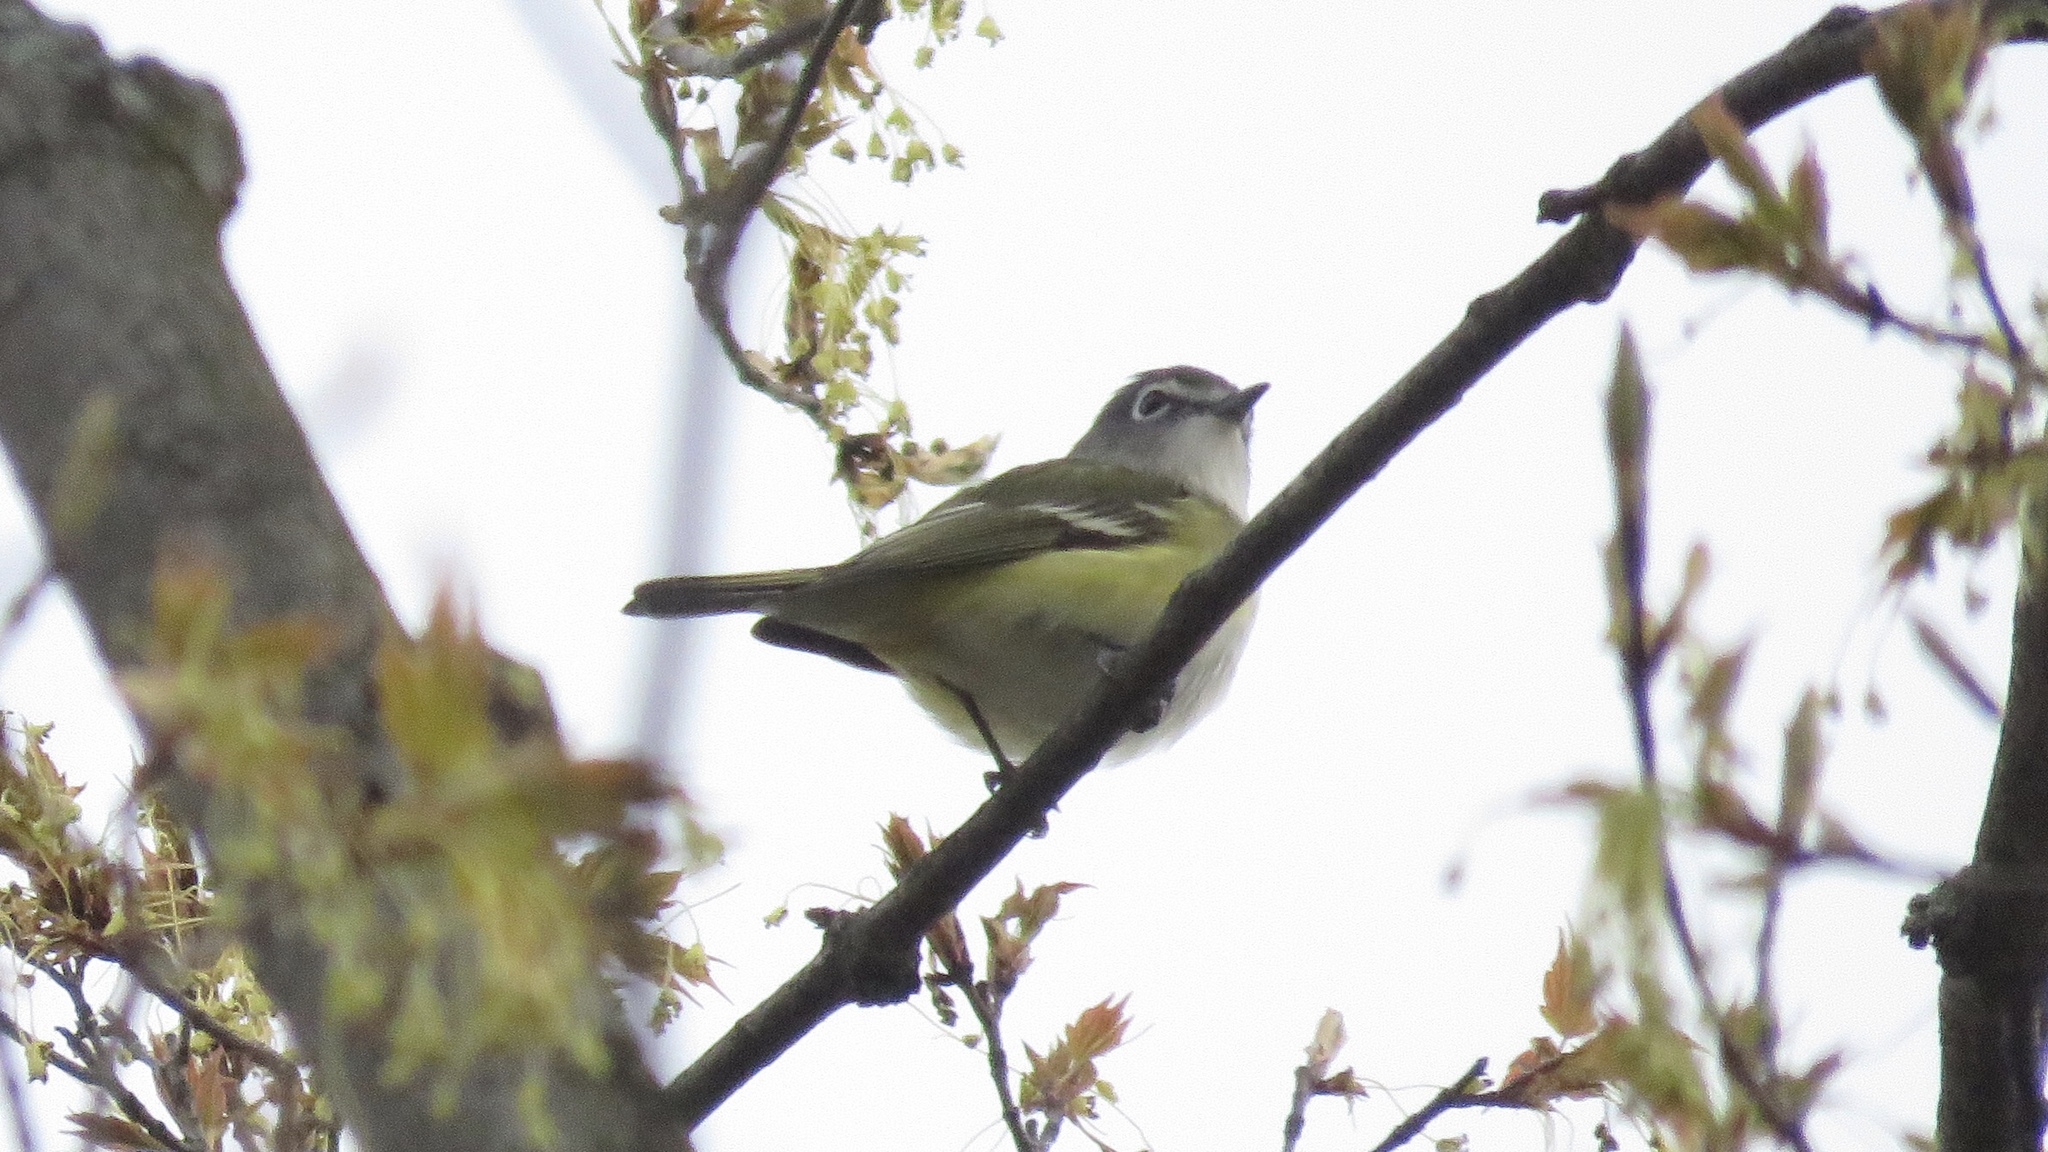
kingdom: Animalia
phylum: Chordata
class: Aves
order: Passeriformes
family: Vireonidae
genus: Vireo
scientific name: Vireo solitarius
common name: Blue-headed vireo
